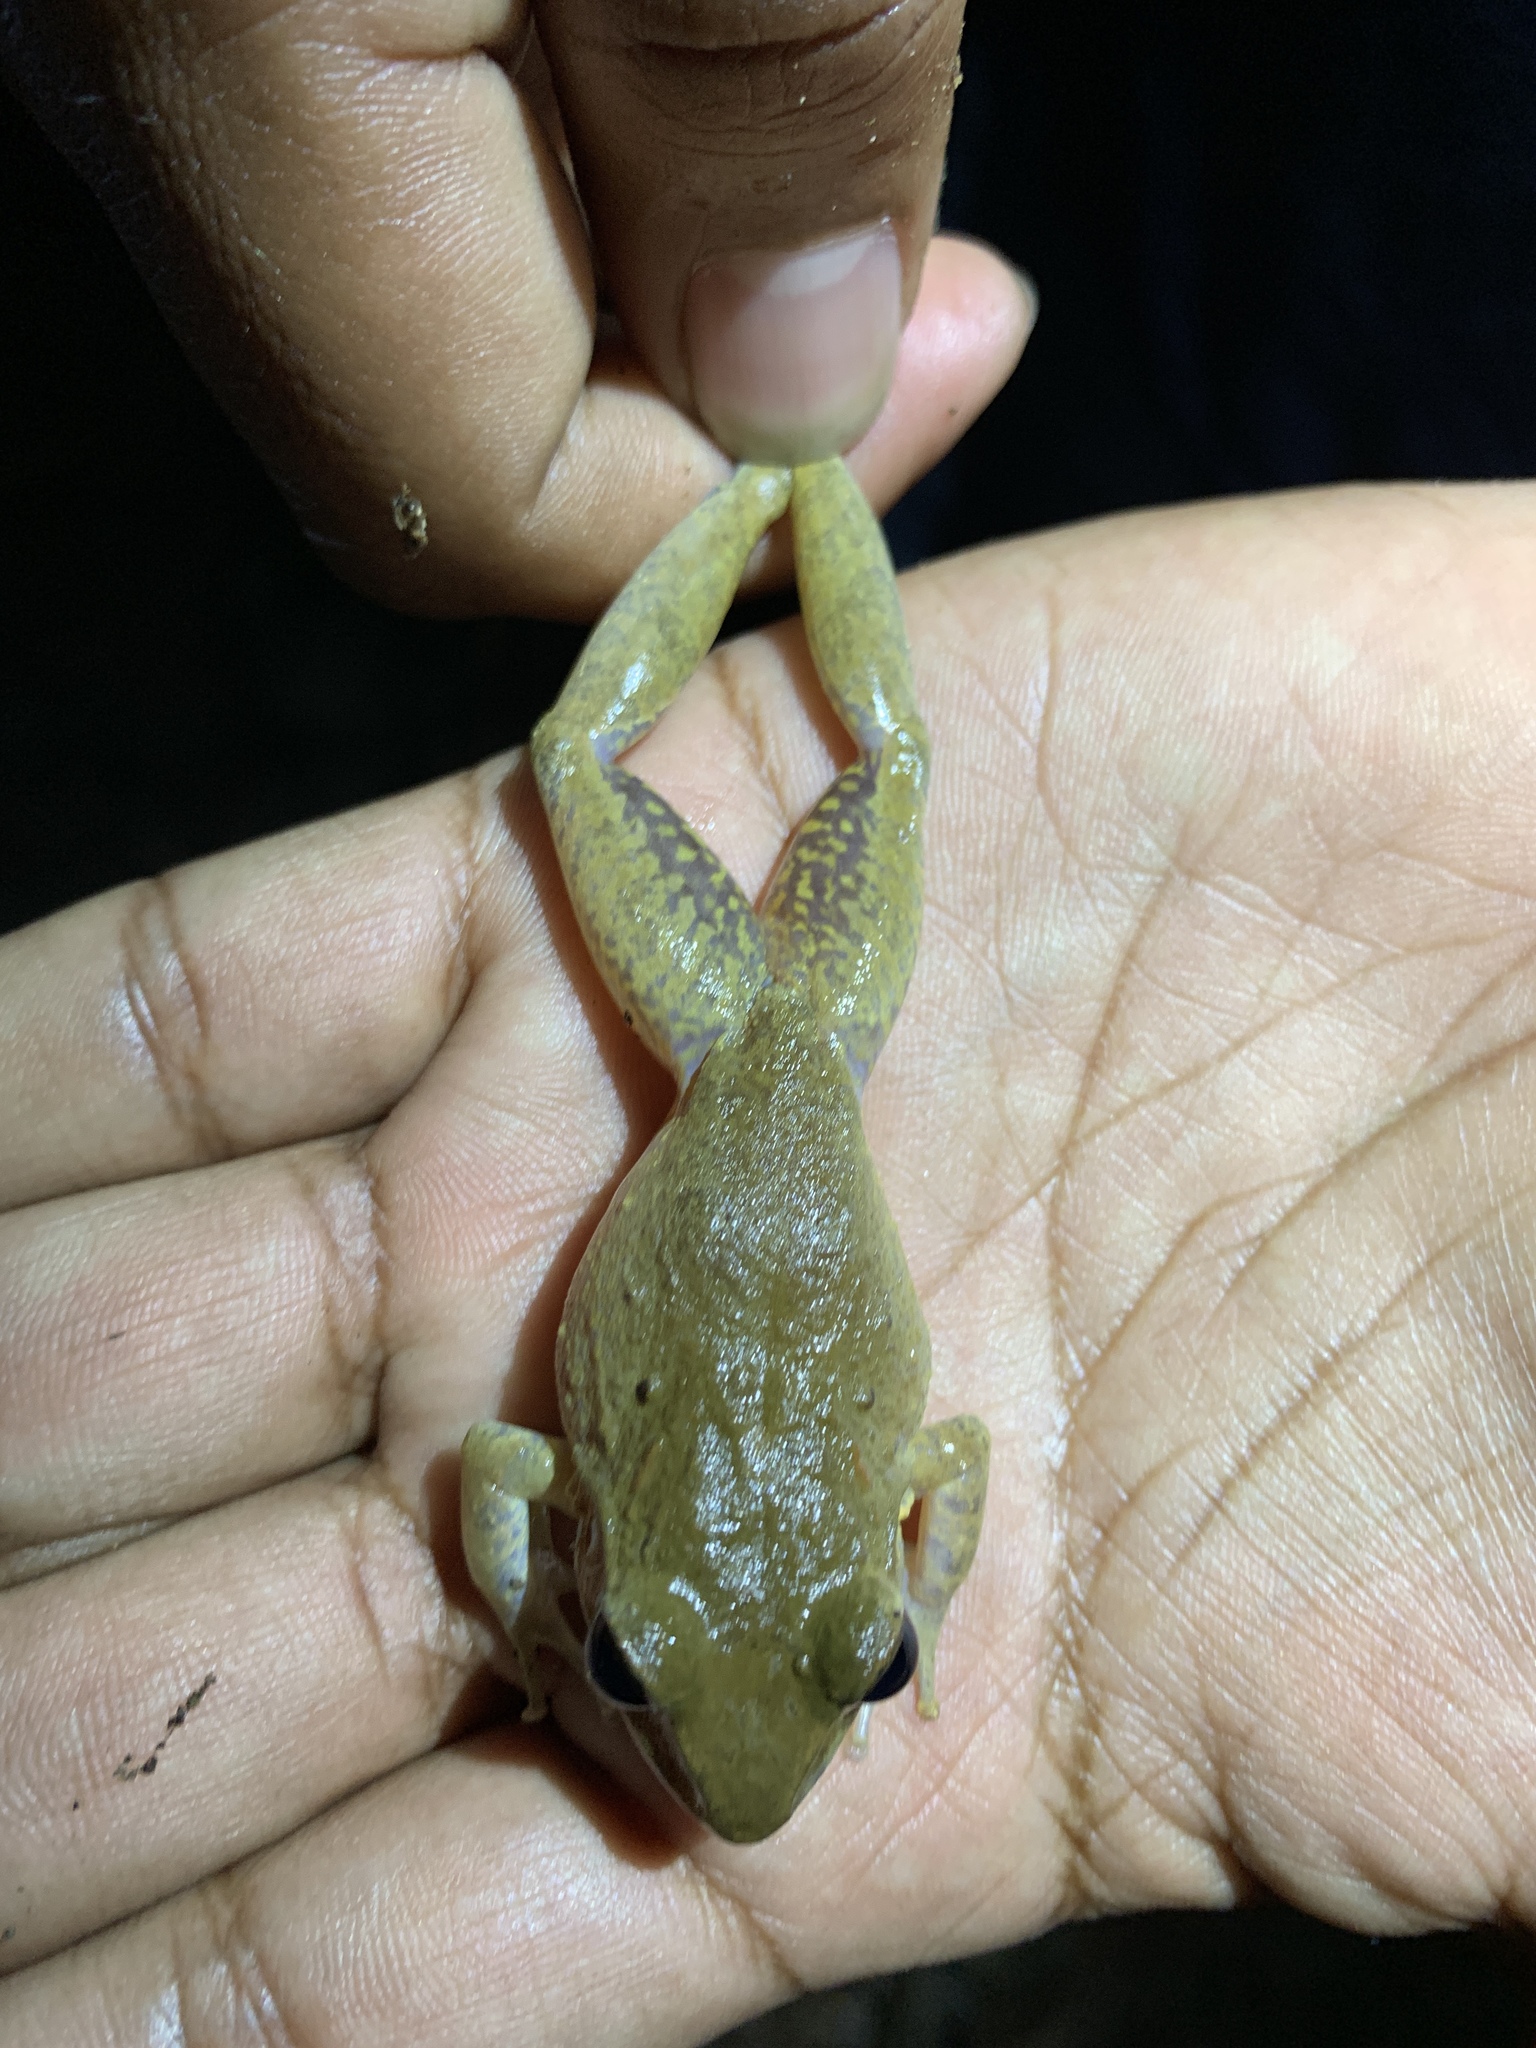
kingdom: Animalia
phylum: Chordata
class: Amphibia
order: Anura
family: Craugastoridae
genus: Craugastor
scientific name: Craugastor fitzingeri
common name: Fitzinger's robber frog
